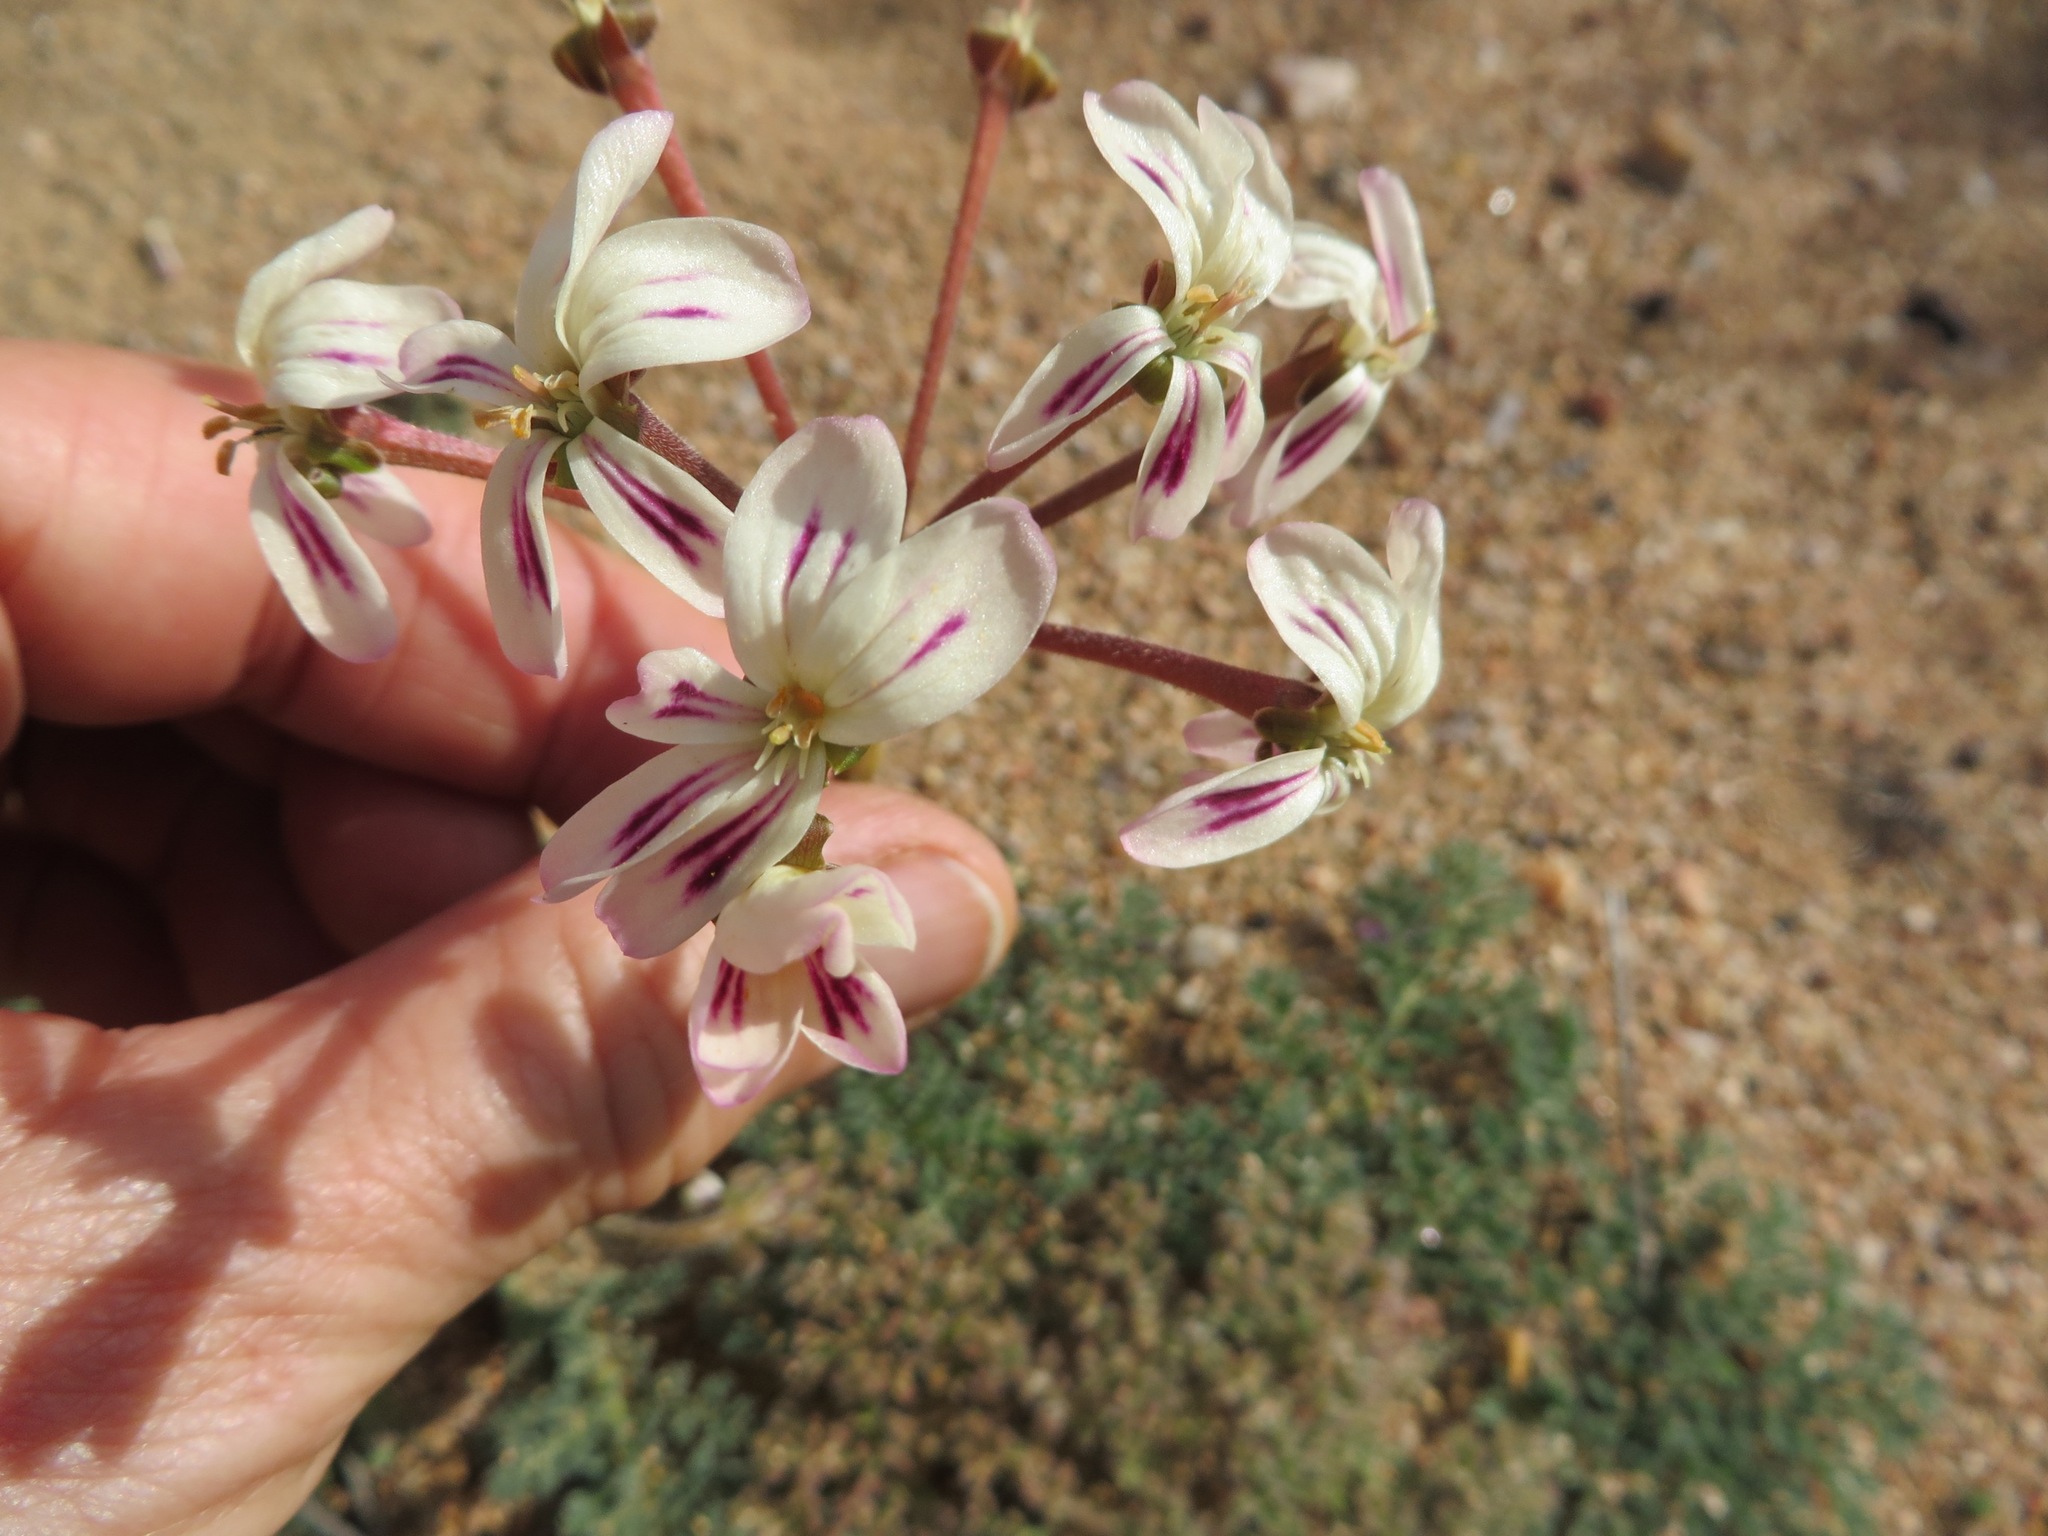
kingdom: Plantae
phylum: Tracheophyta
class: Magnoliopsida
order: Geraniales
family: Geraniaceae
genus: Pelargonium
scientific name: Pelargonium triste
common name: Night-scent pelargonium
